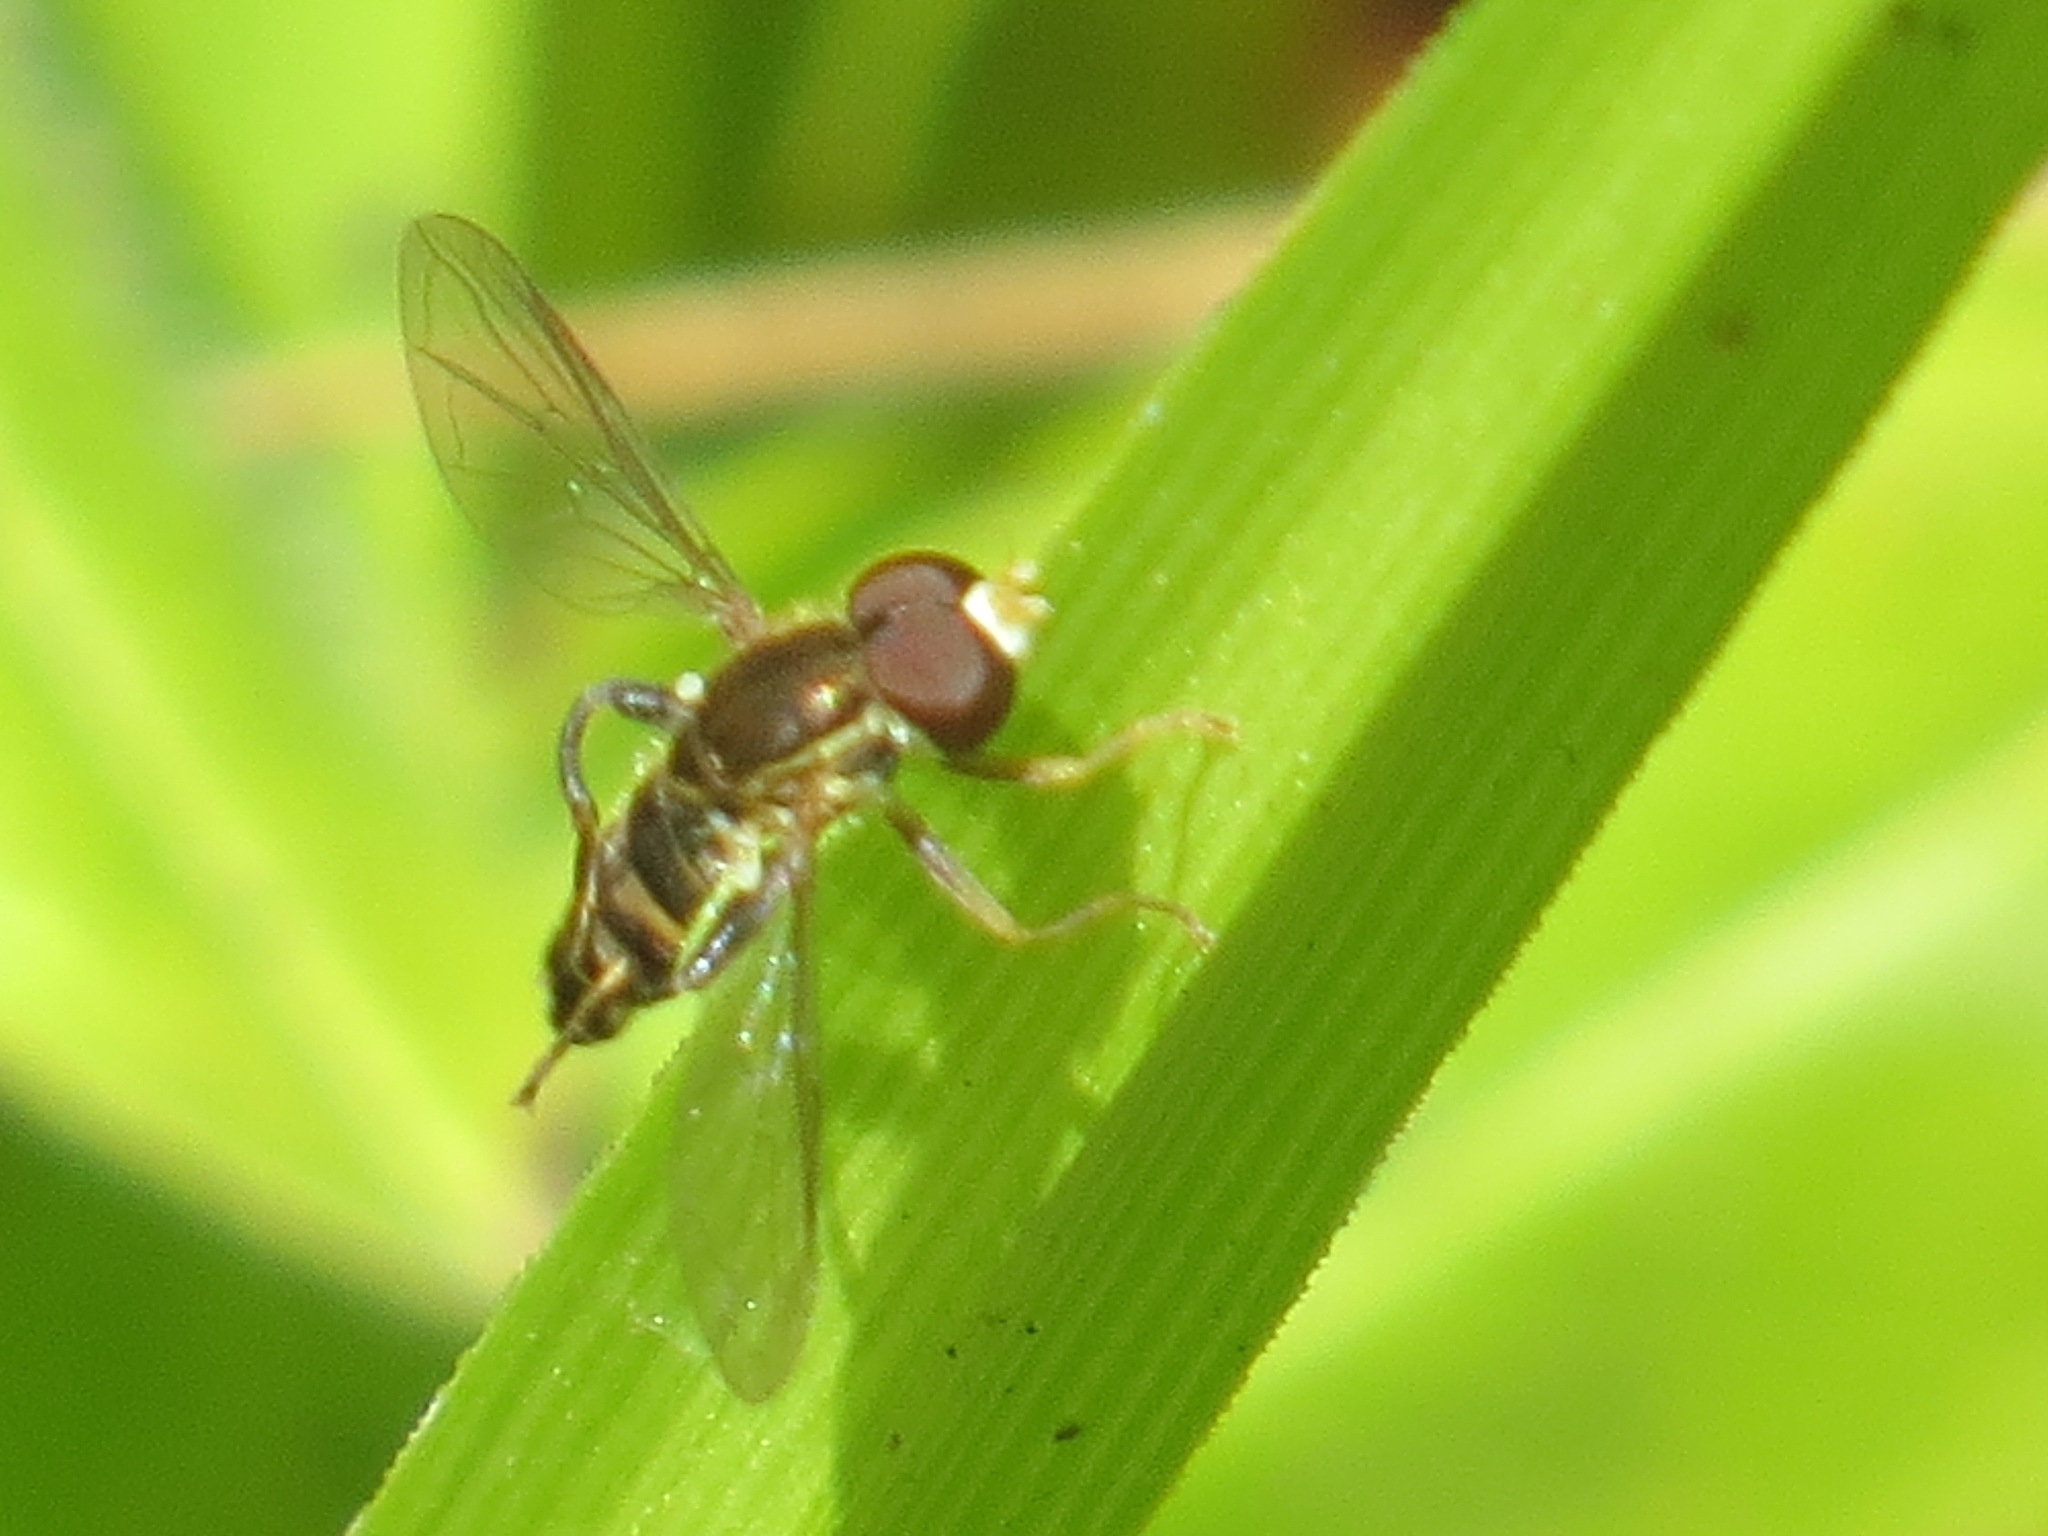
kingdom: Animalia
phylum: Arthropoda
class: Insecta
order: Diptera
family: Syrphidae
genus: Toxomerus
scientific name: Toxomerus occidentalis
